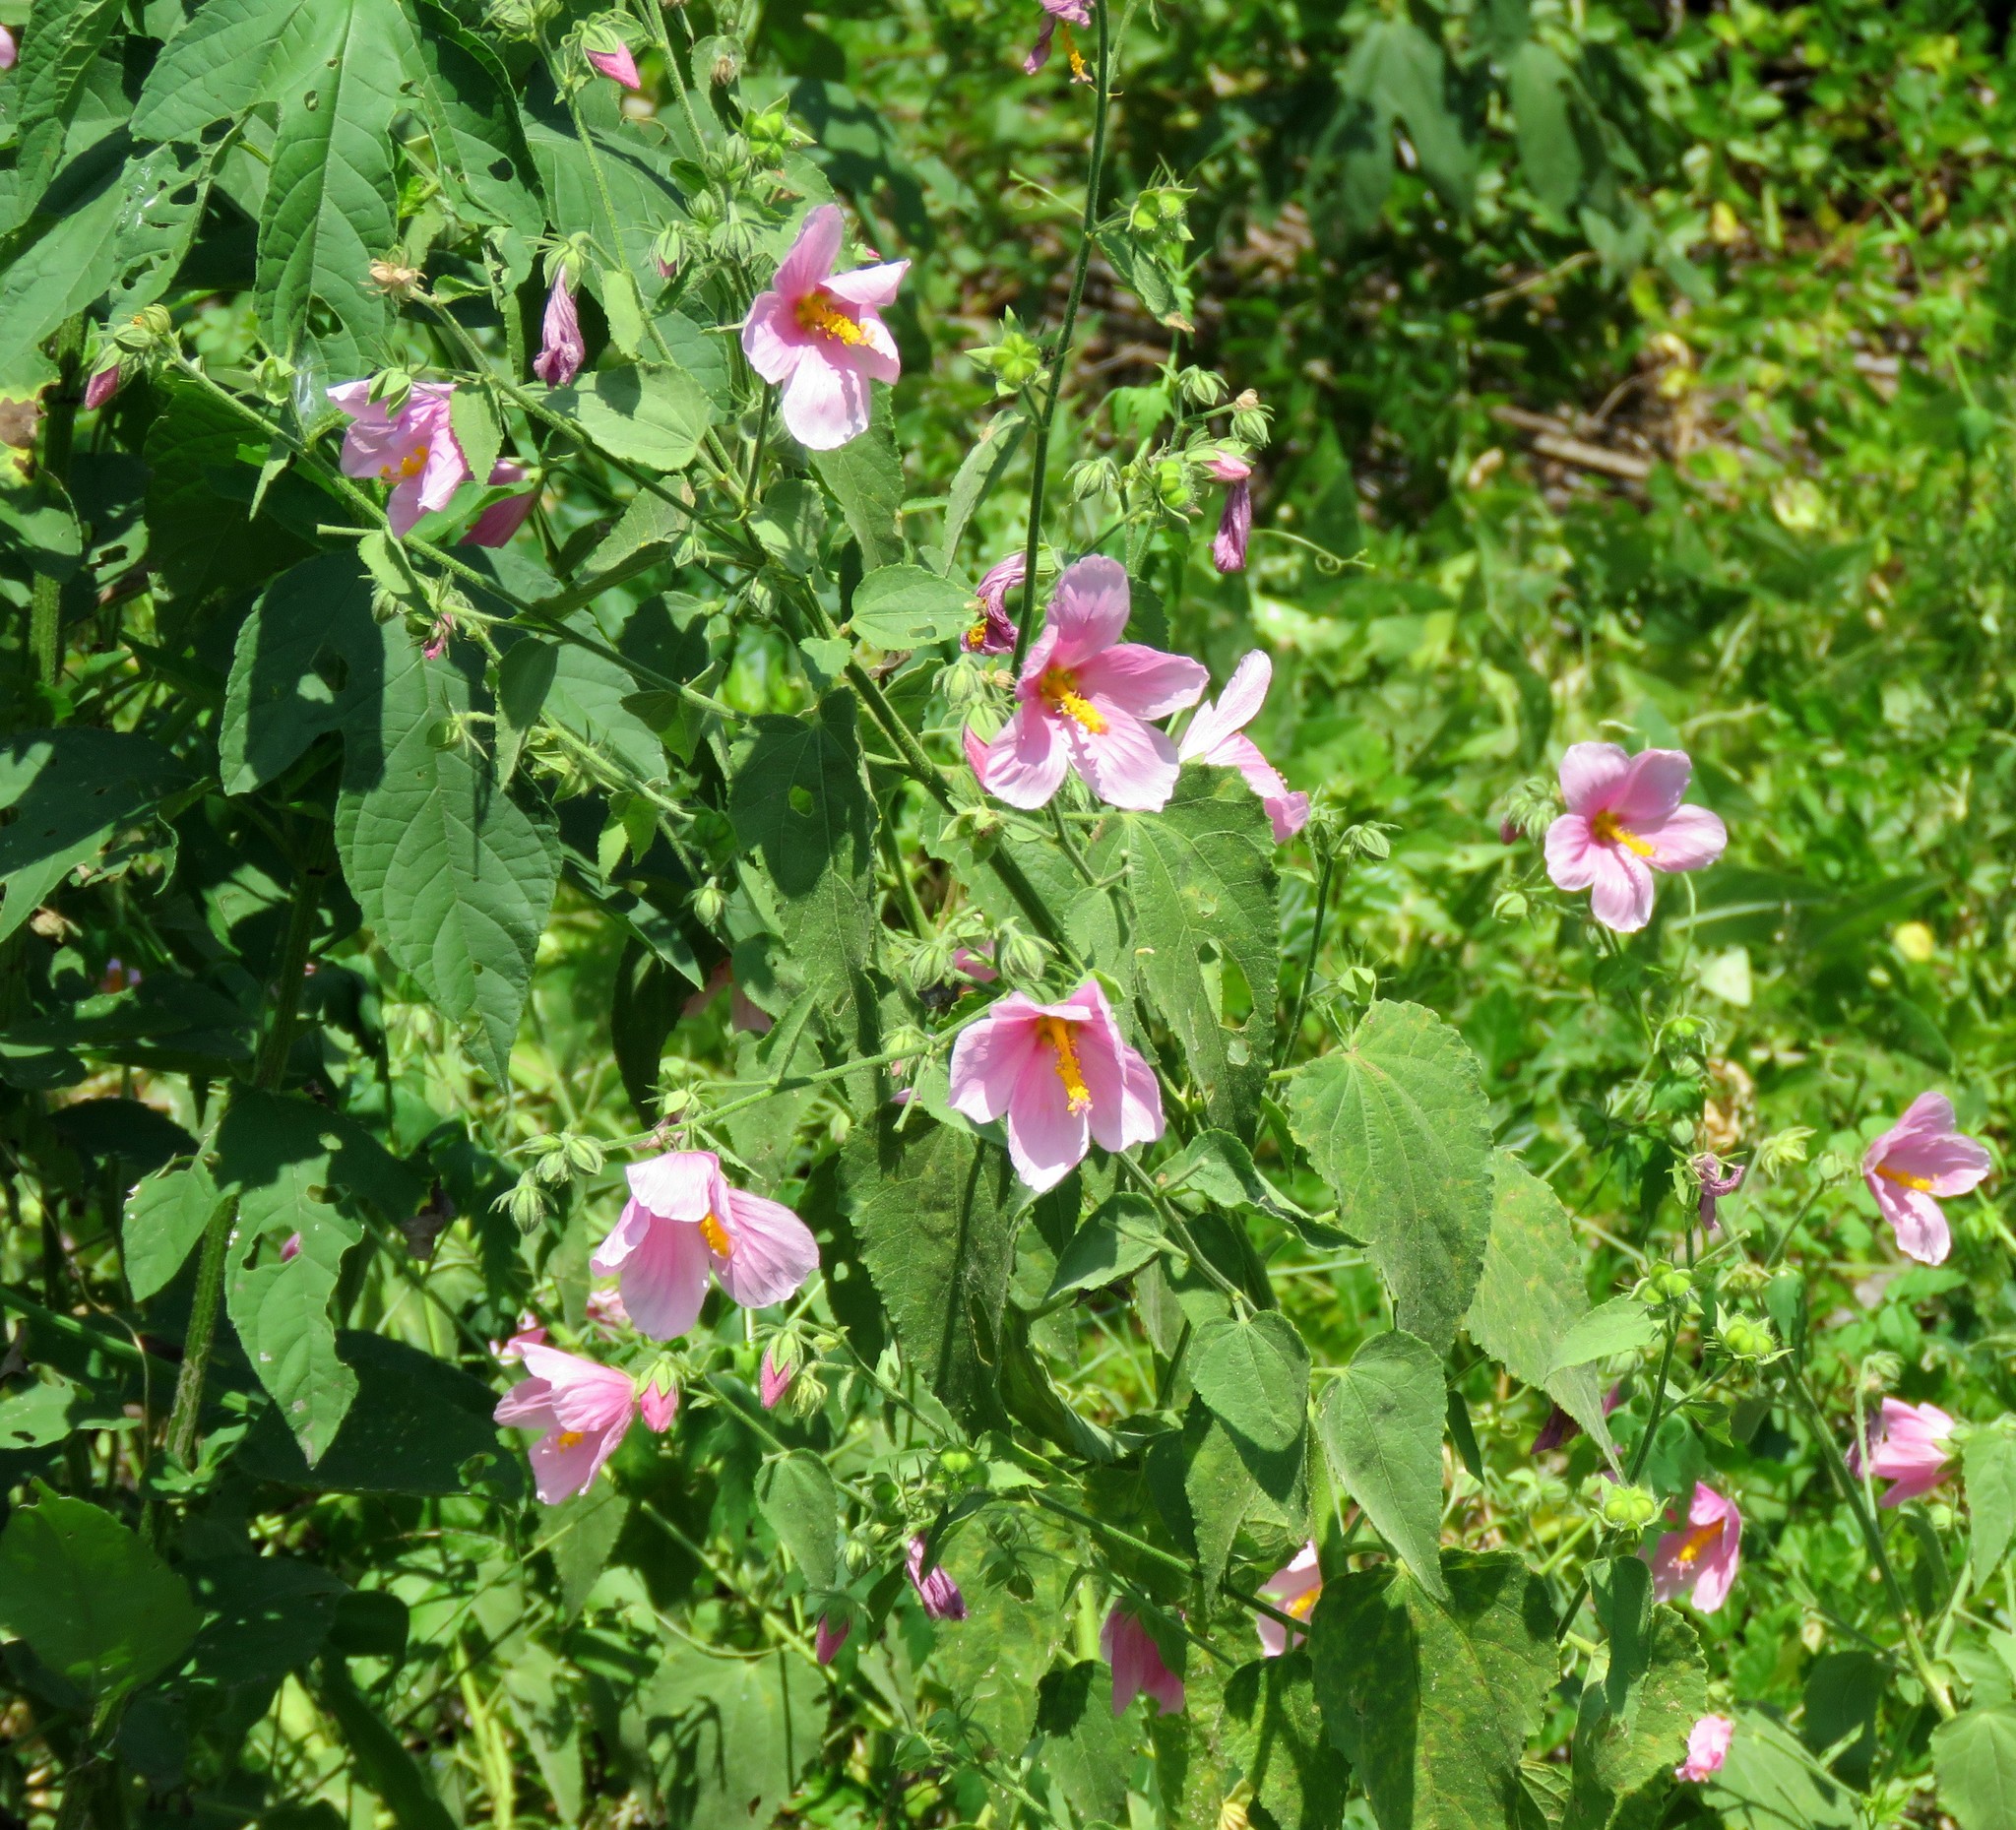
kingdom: Plantae
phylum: Tracheophyta
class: Magnoliopsida
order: Malvales
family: Malvaceae
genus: Kosteletzkya
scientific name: Kosteletzkya pentacarpos
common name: Virginia saltmarsh mallow
